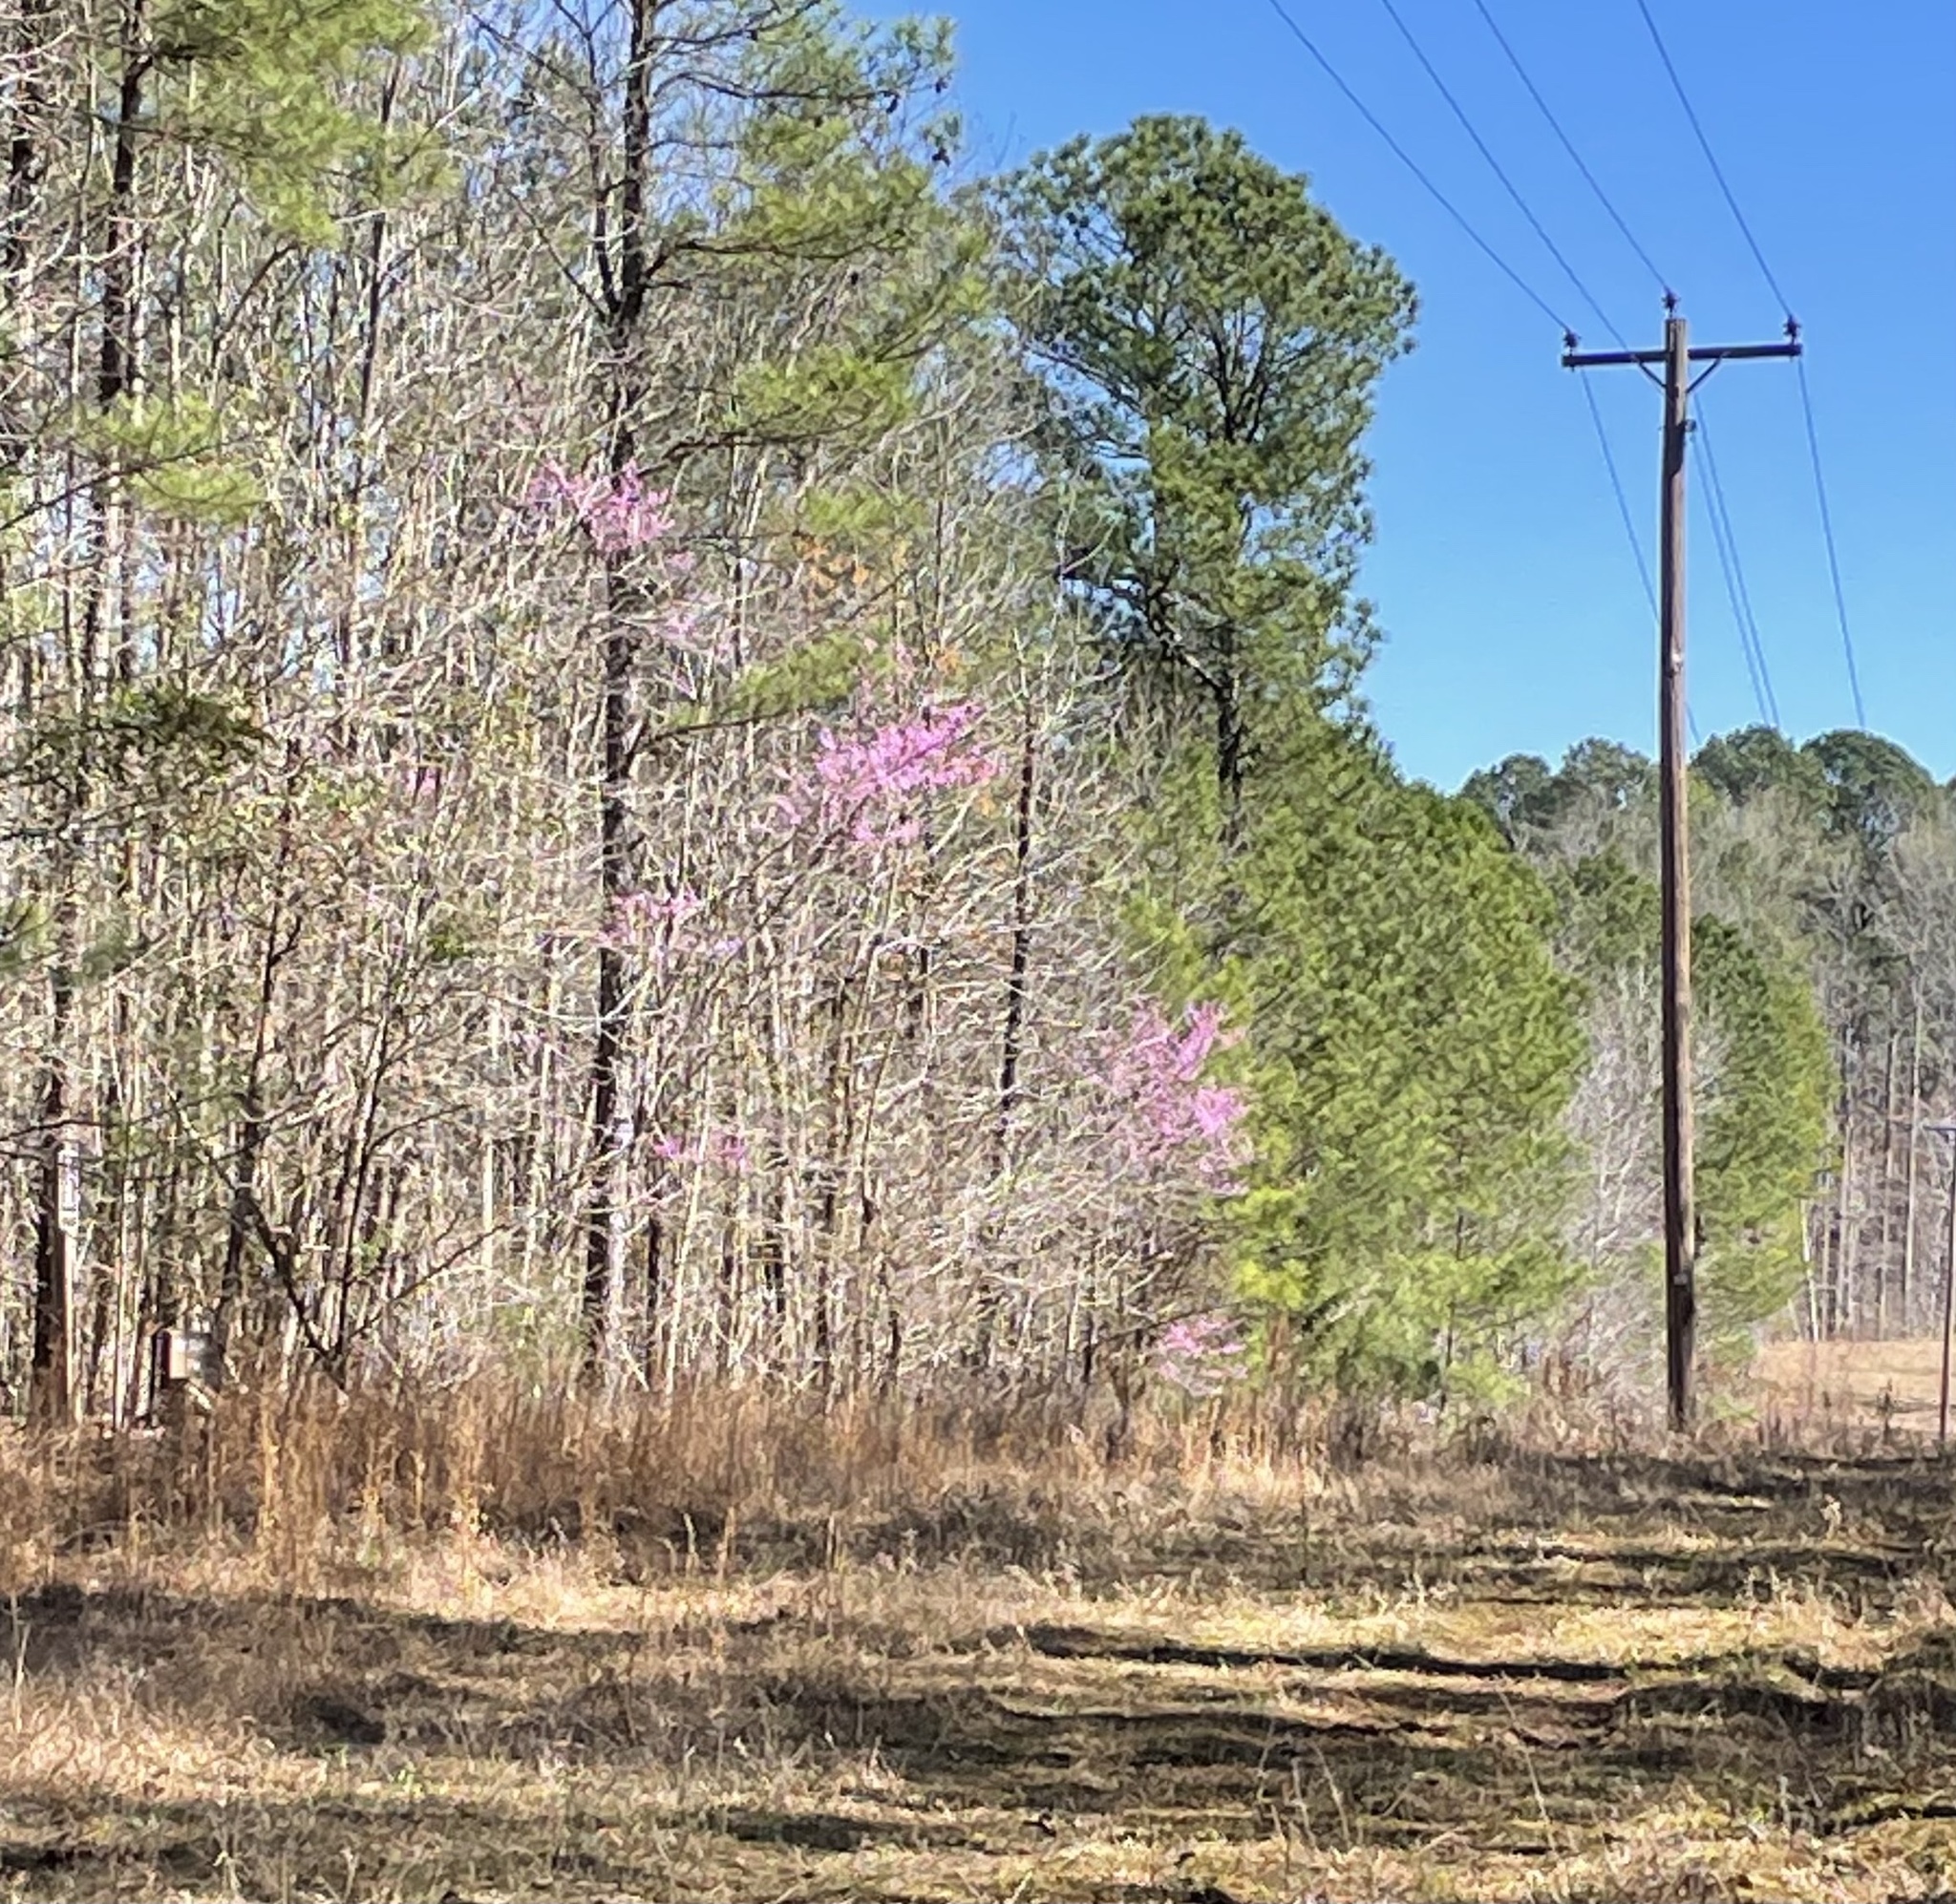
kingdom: Plantae
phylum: Tracheophyta
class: Magnoliopsida
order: Fabales
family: Fabaceae
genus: Cercis
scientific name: Cercis canadensis
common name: Eastern redbud
